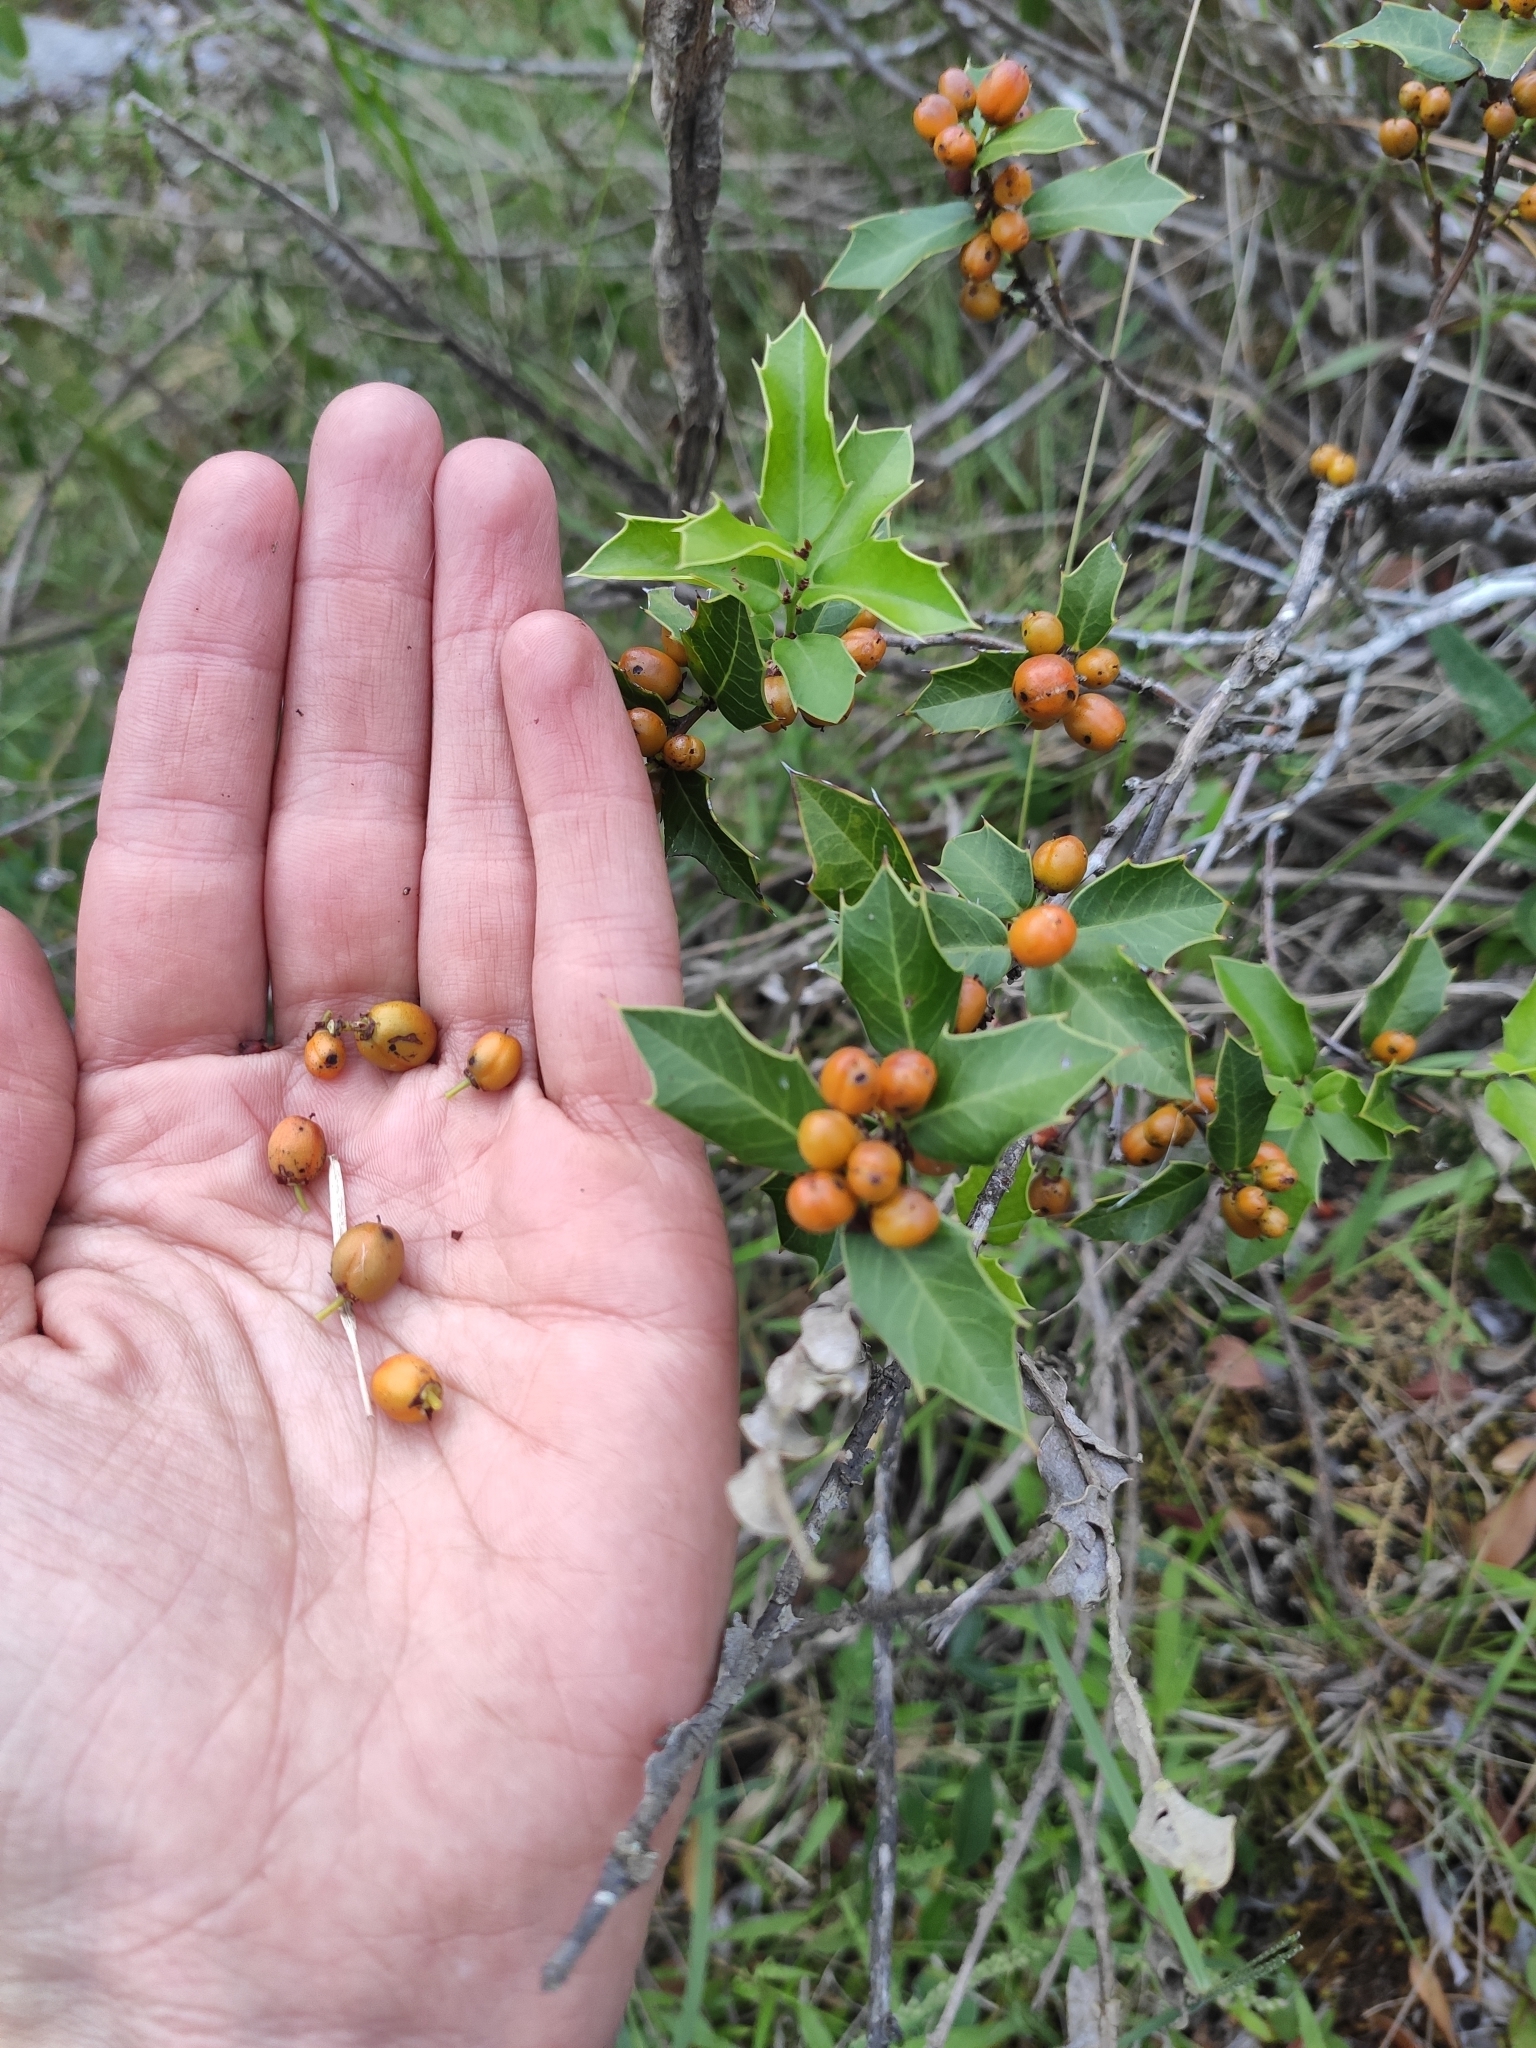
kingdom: Plantae
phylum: Tracheophyta
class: Magnoliopsida
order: Celastrales
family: Celastraceae
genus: Monteverdia
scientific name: Monteverdia
